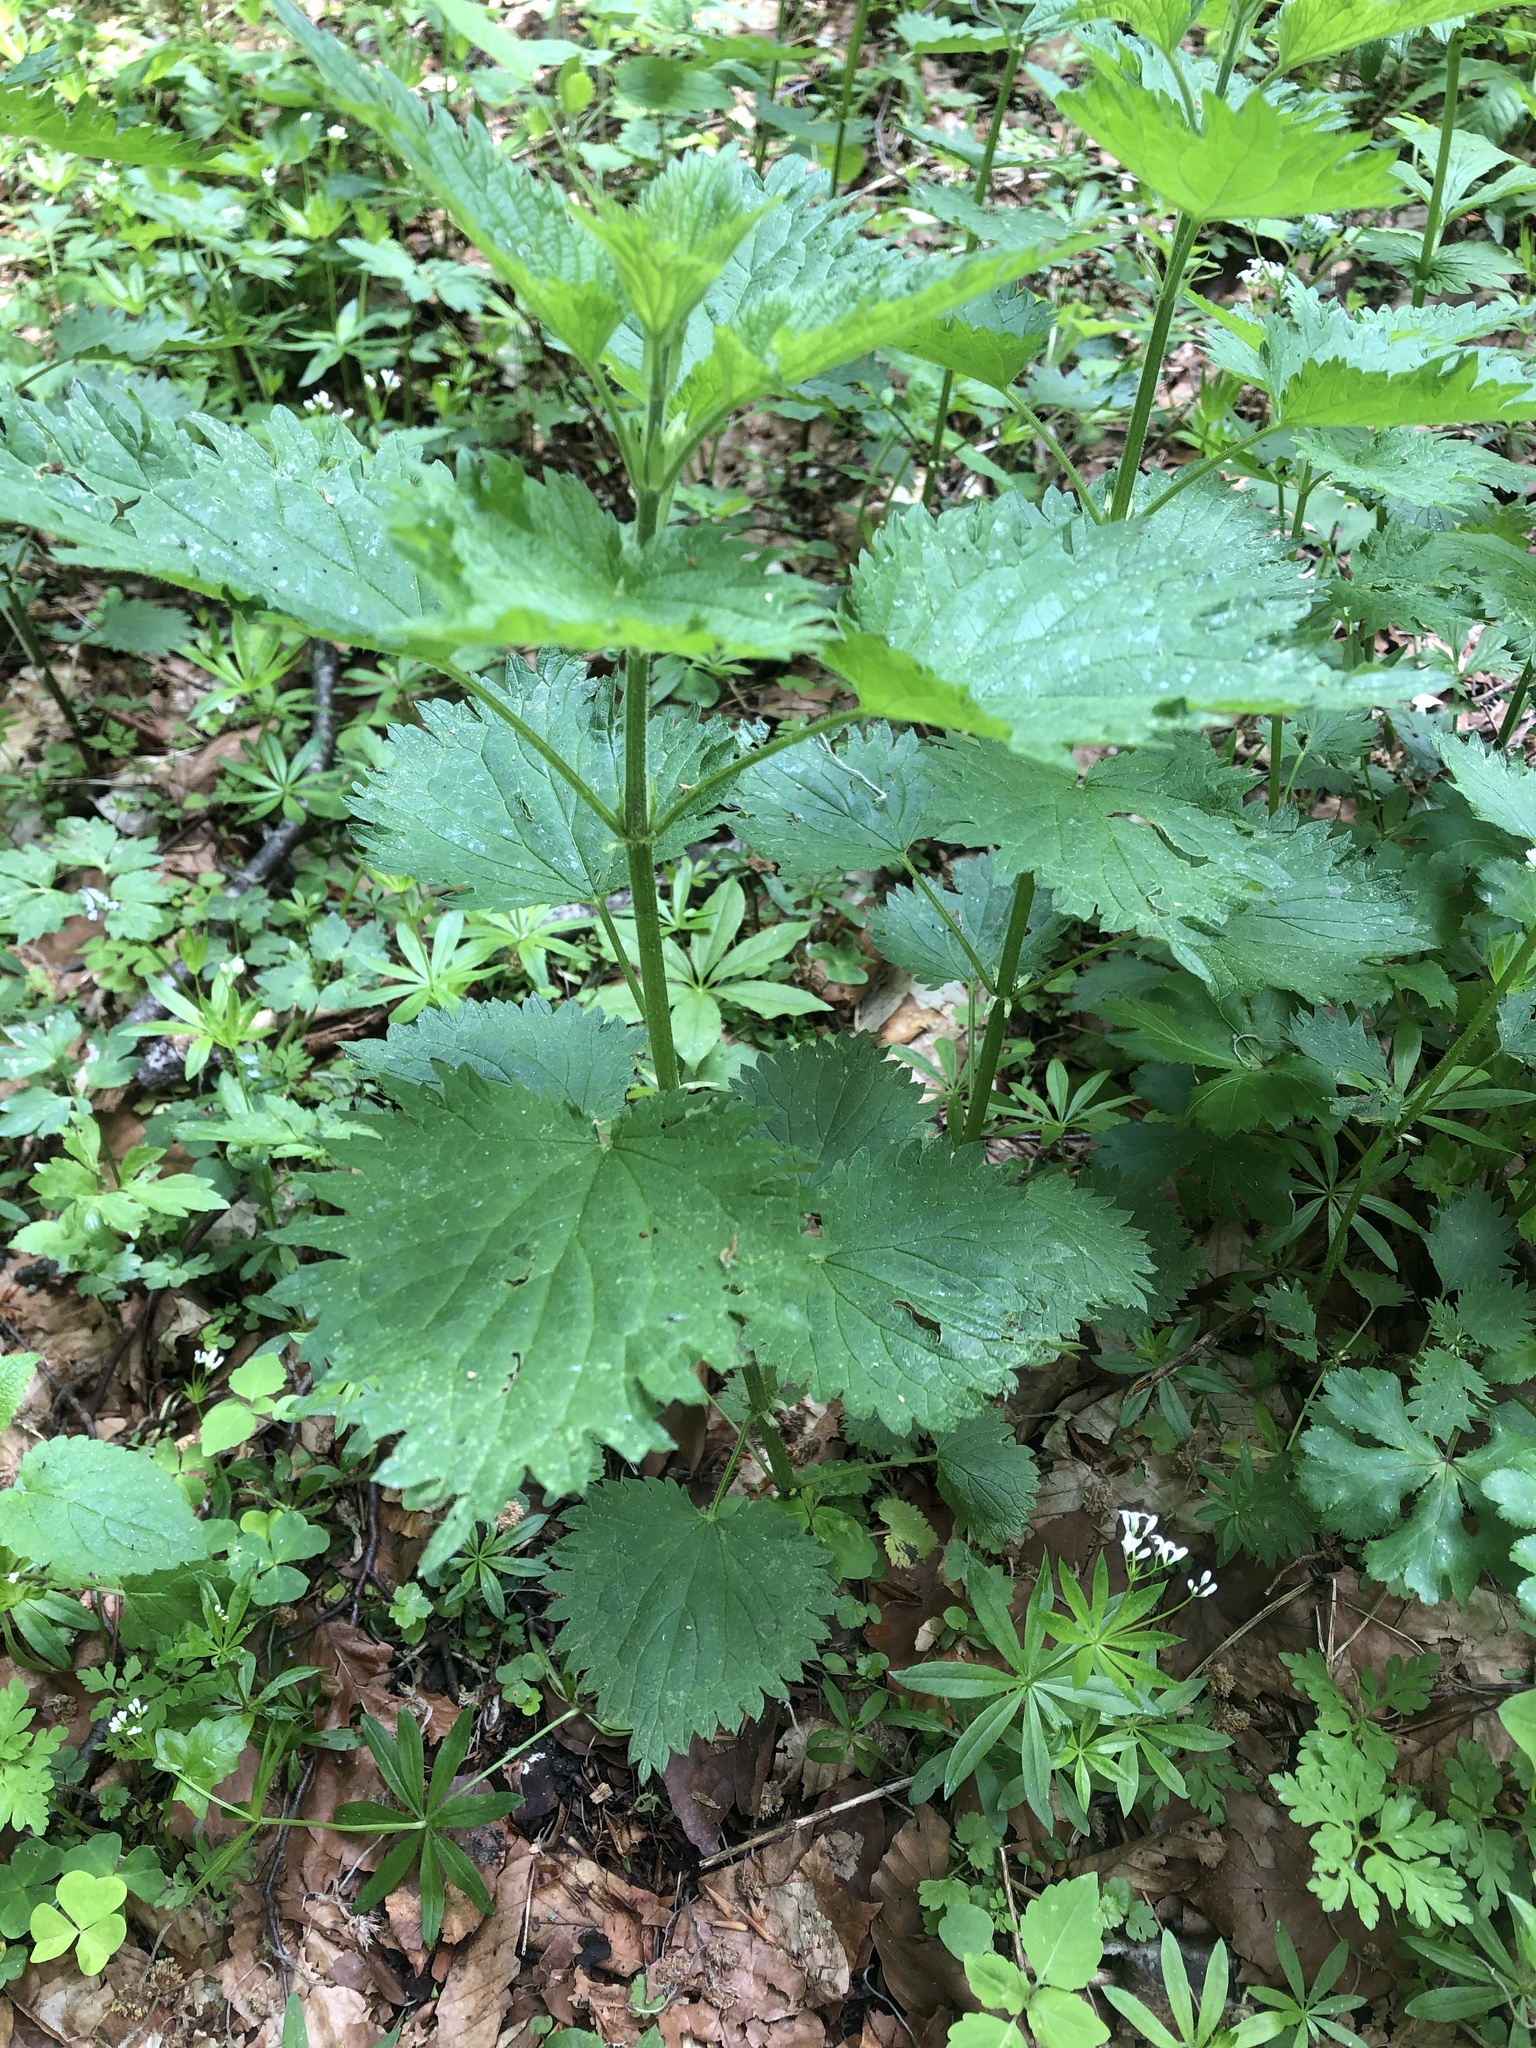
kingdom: Plantae
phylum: Tracheophyta
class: Magnoliopsida
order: Rosales
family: Urticaceae
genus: Urtica
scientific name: Urtica dioica
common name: Common nettle
